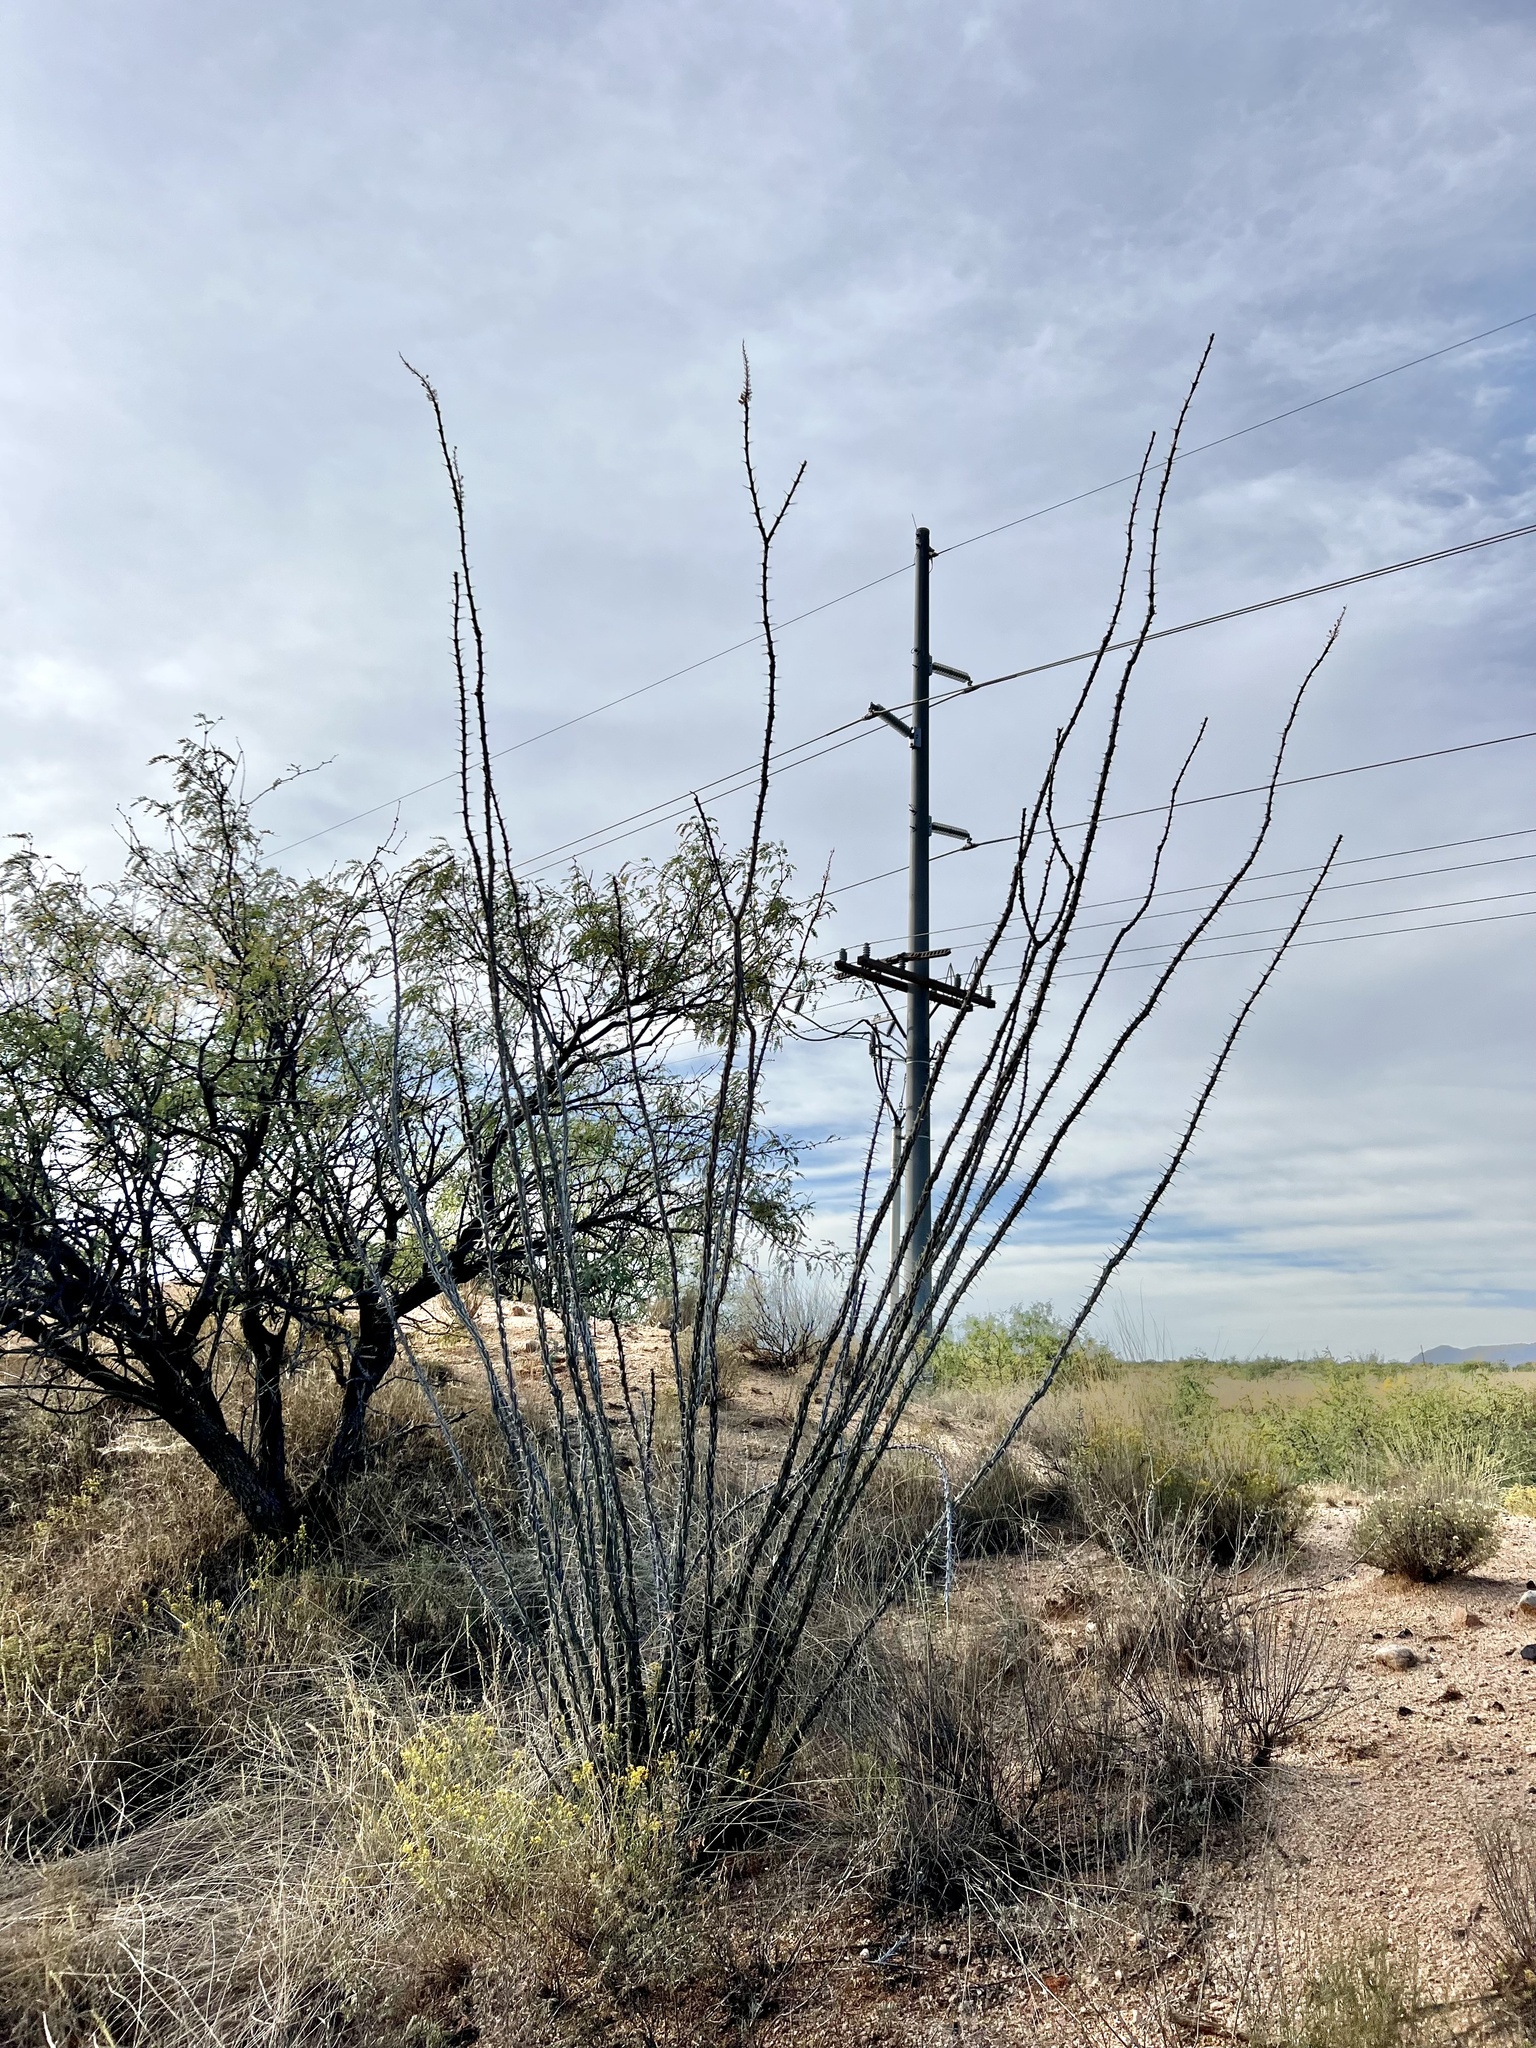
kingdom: Plantae
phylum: Tracheophyta
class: Magnoliopsida
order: Ericales
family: Fouquieriaceae
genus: Fouquieria
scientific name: Fouquieria splendens
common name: Vine-cactus
